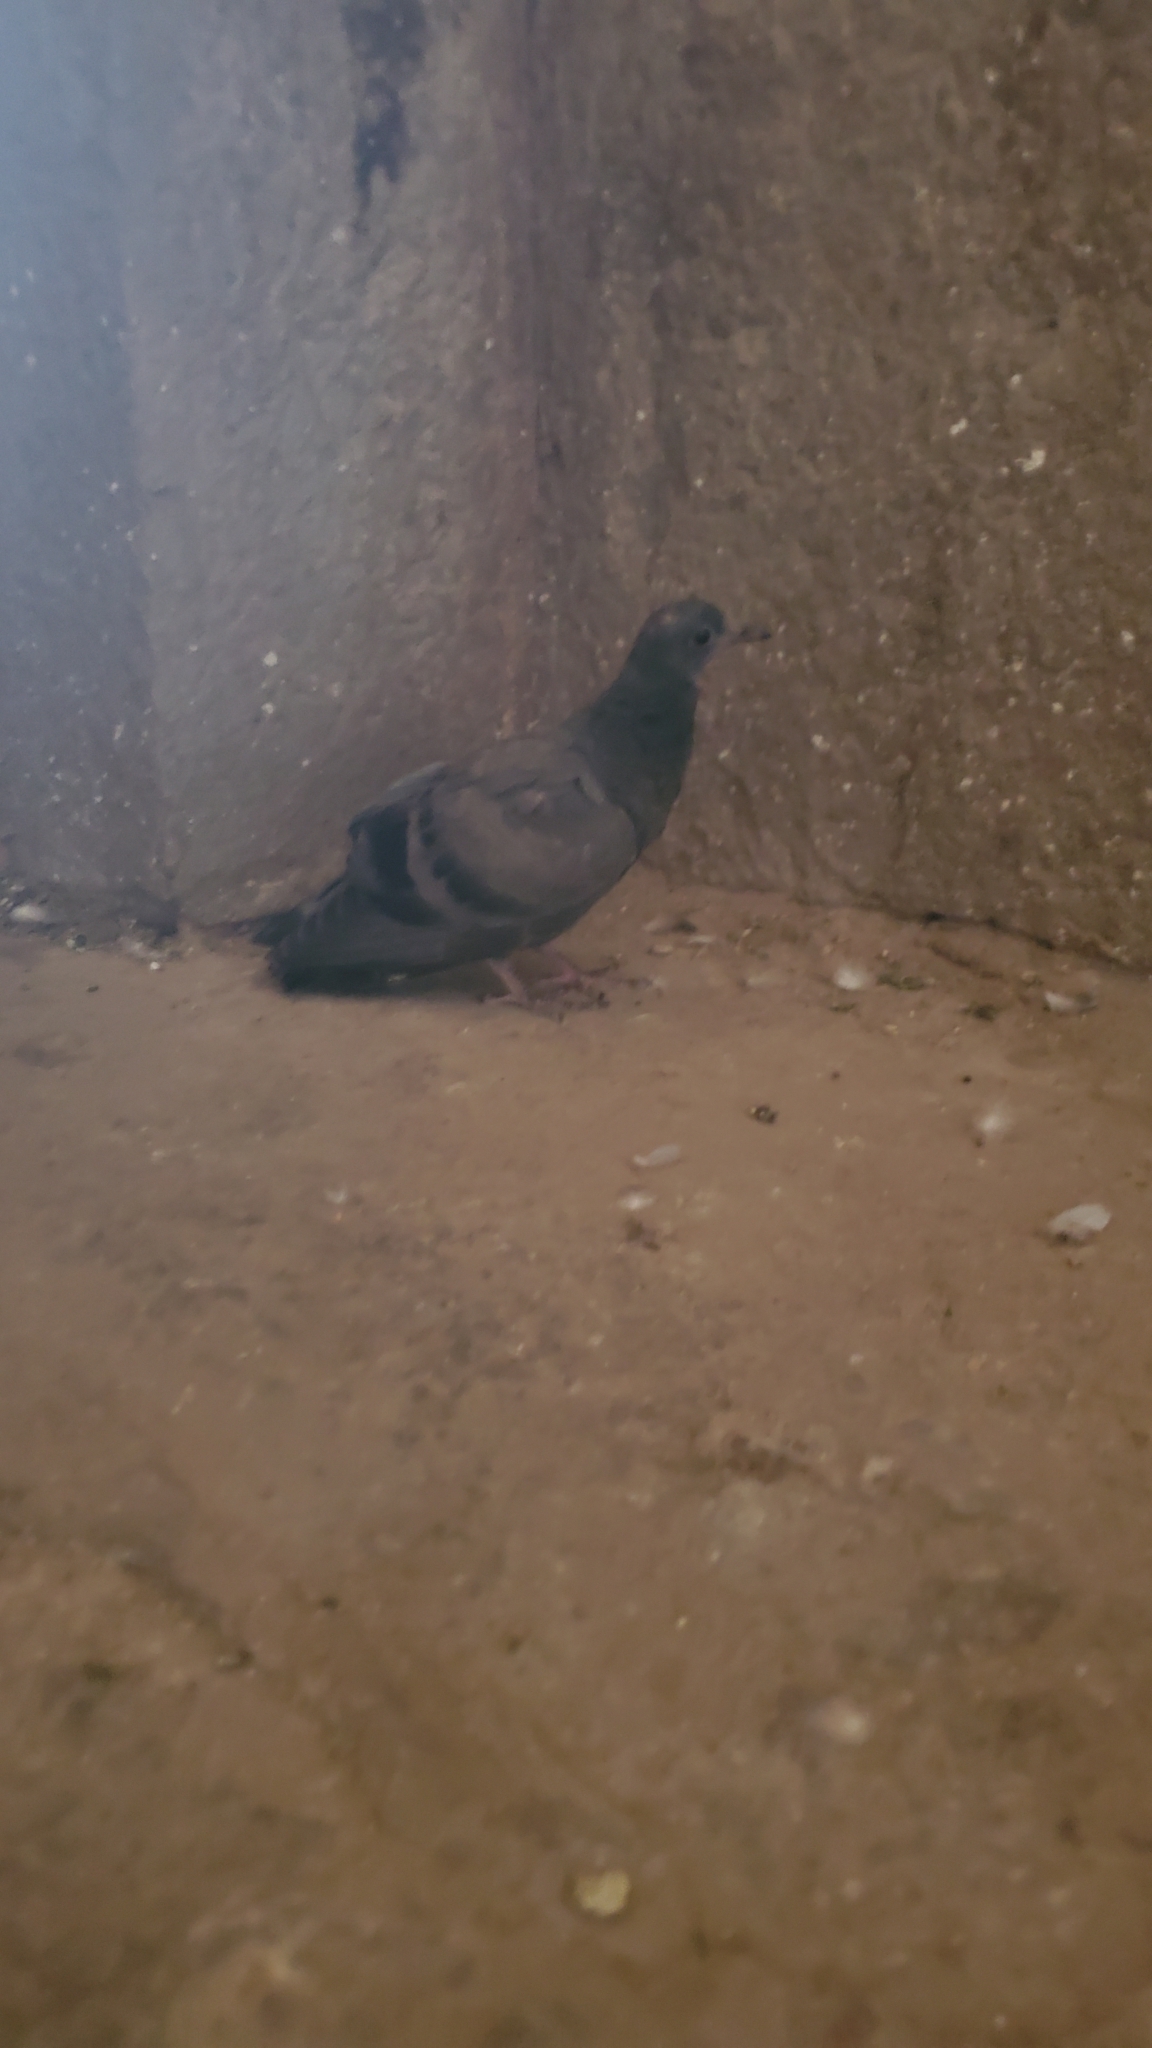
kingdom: Animalia
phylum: Chordata
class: Aves
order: Columbiformes
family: Columbidae
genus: Columba
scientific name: Columba livia
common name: Rock pigeon
